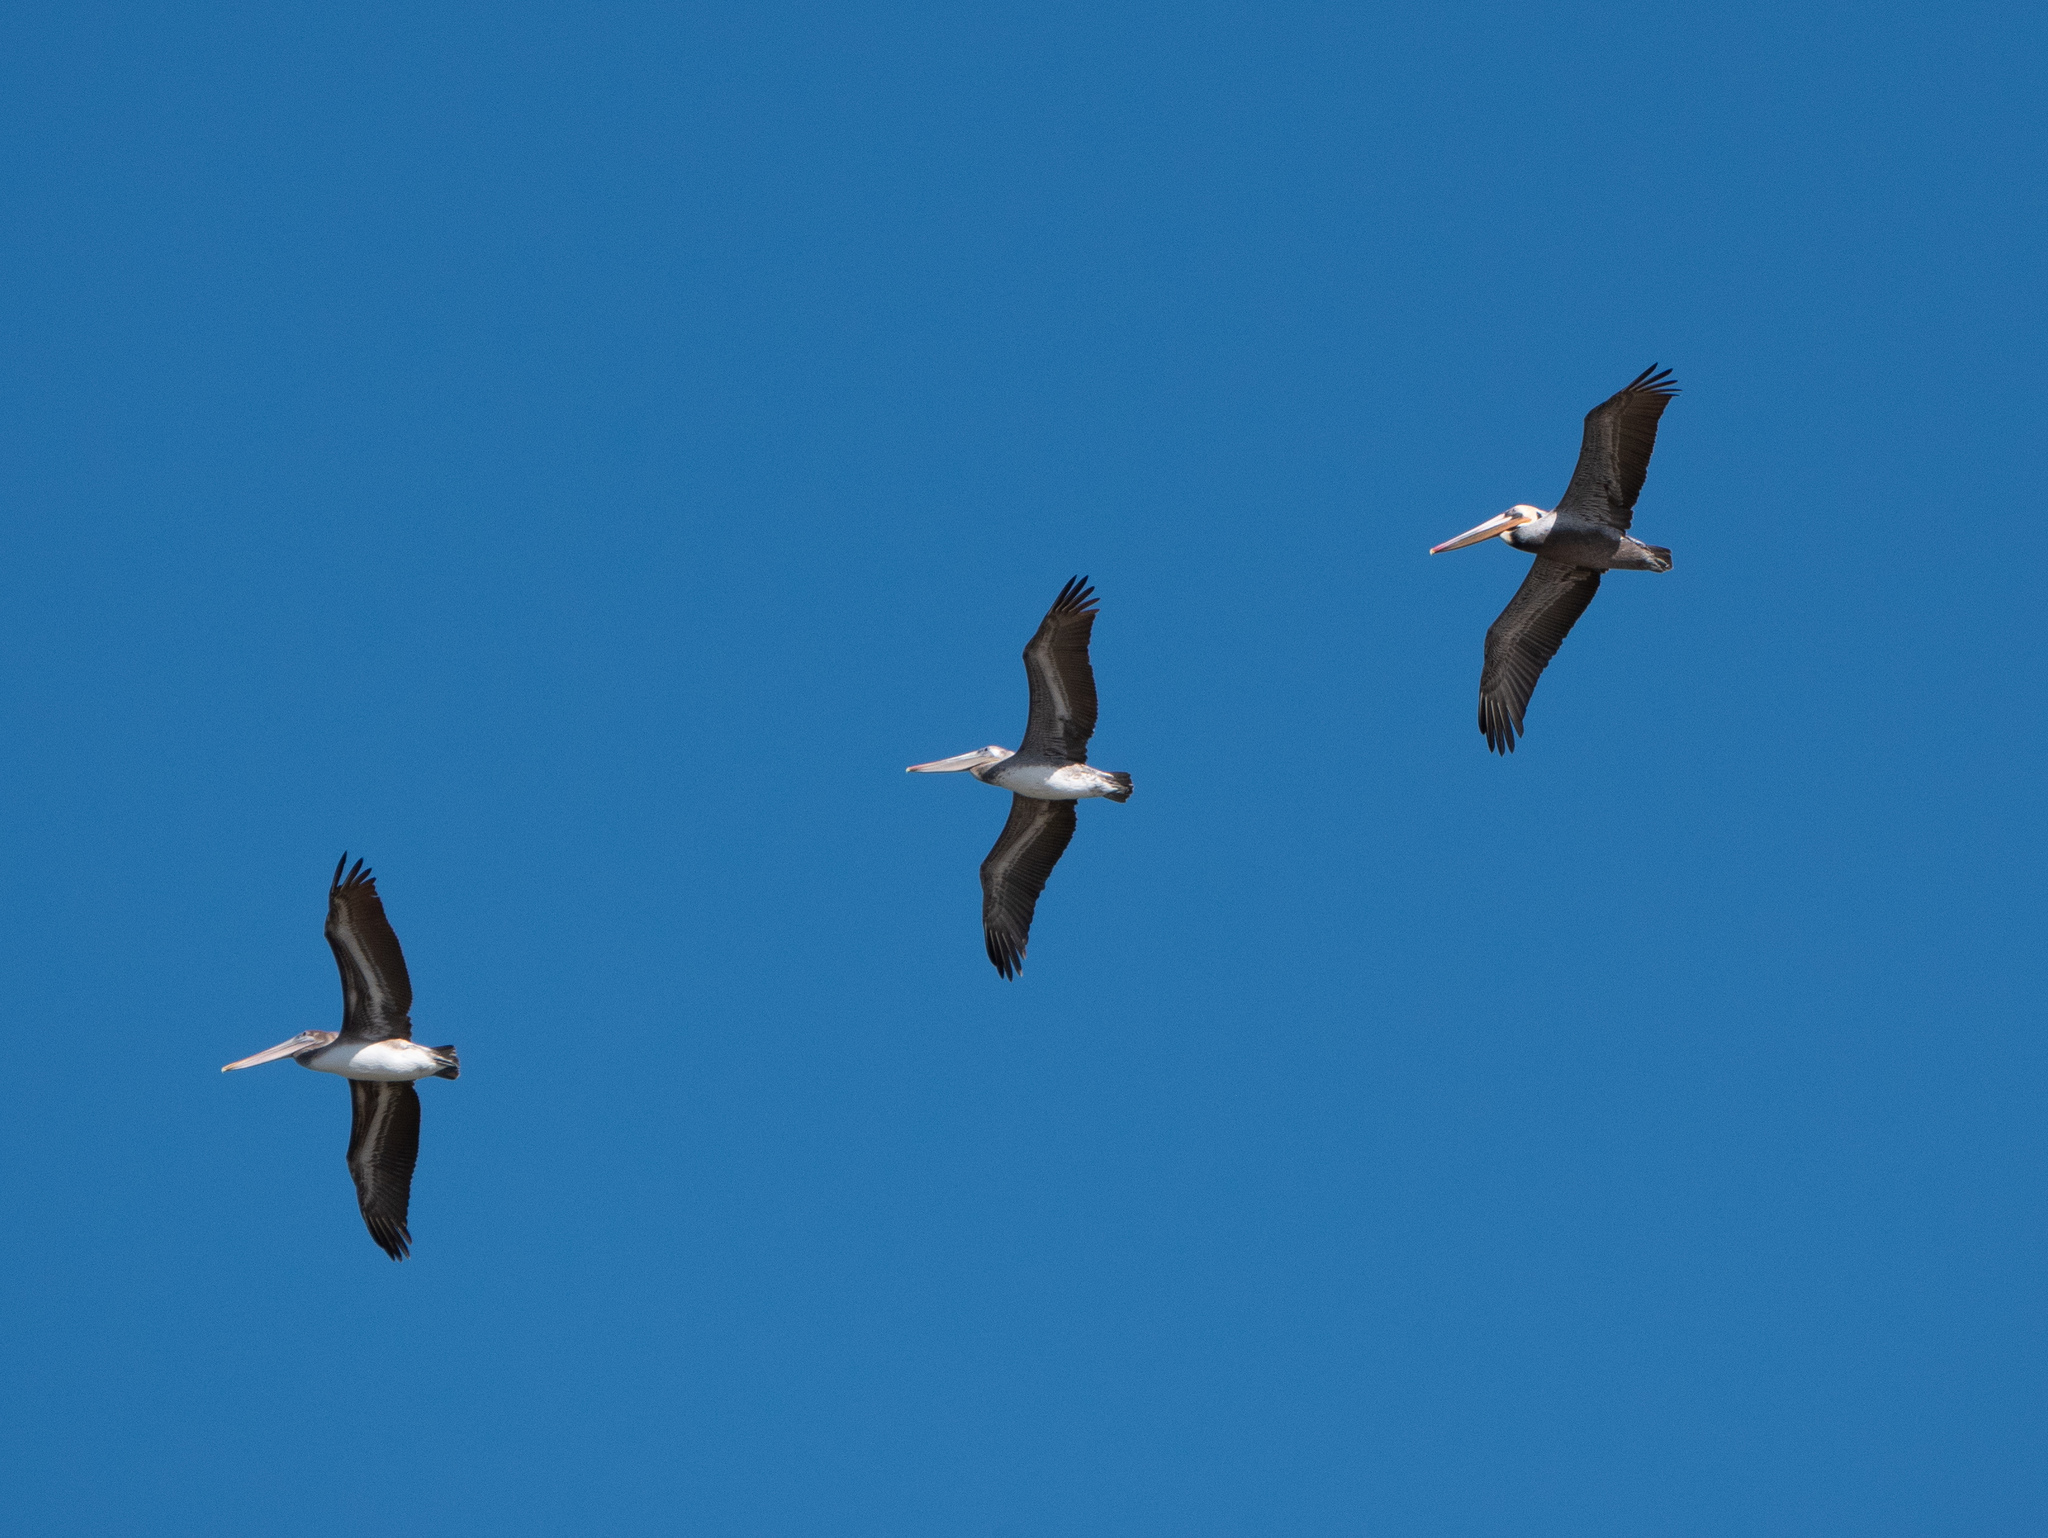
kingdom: Animalia
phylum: Chordata
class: Aves
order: Pelecaniformes
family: Pelecanidae
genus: Pelecanus
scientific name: Pelecanus occidentalis
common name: Brown pelican
